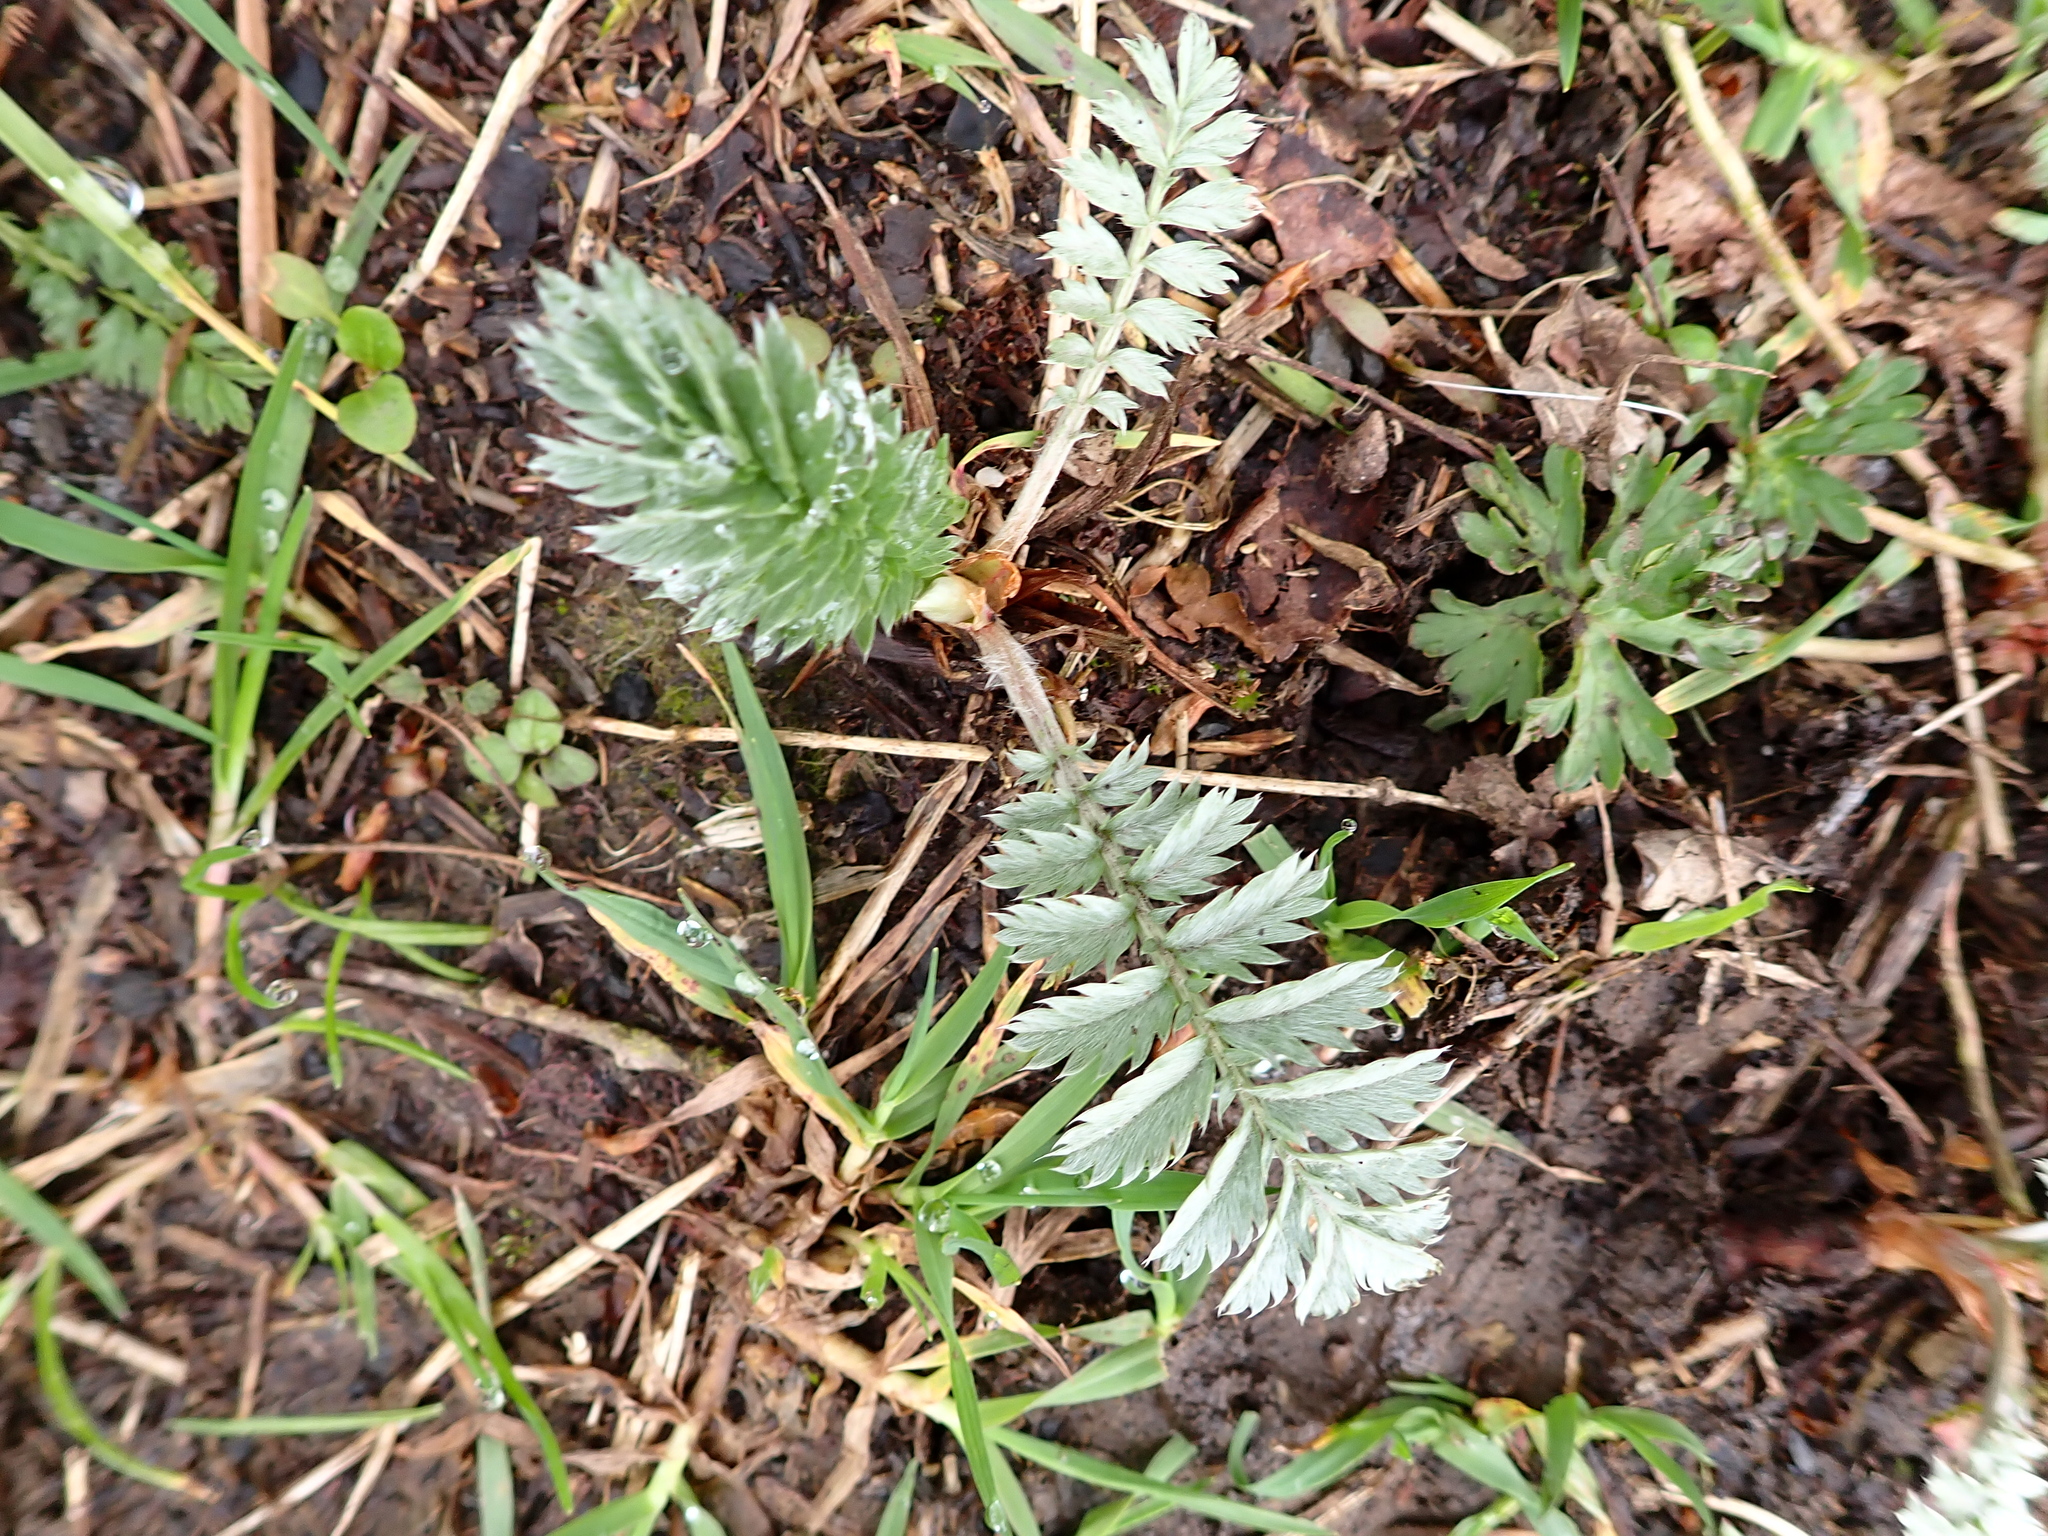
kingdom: Plantae
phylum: Tracheophyta
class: Magnoliopsida
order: Rosales
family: Rosaceae
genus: Argentina
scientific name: Argentina anserina
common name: Common silverweed
